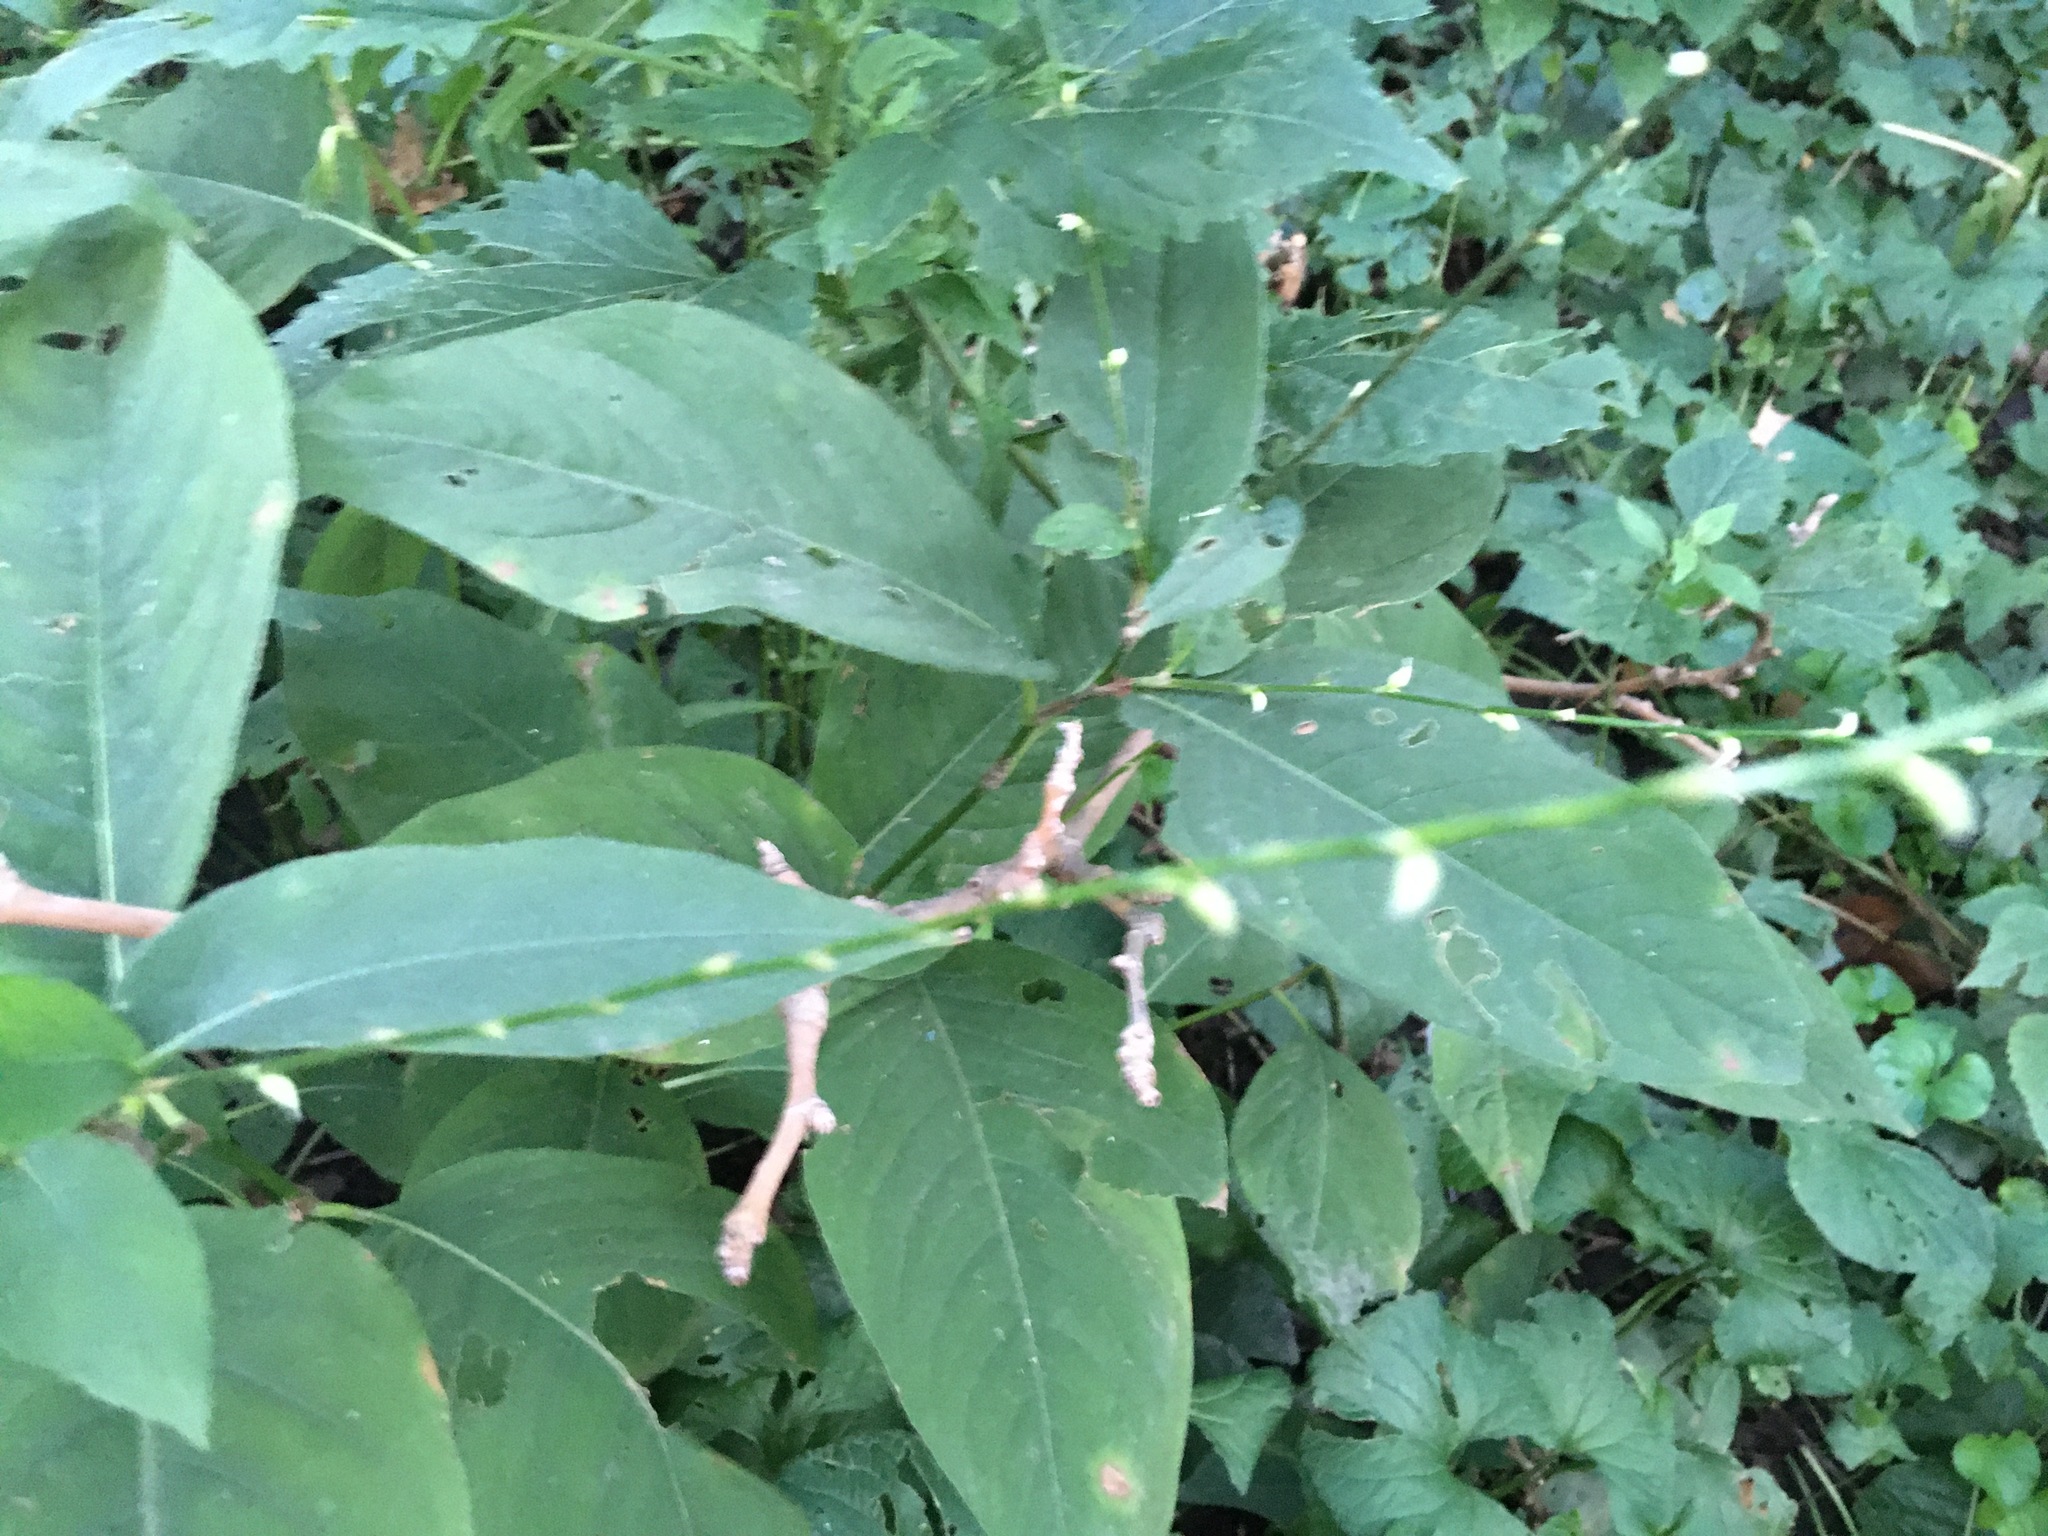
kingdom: Plantae
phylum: Tracheophyta
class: Magnoliopsida
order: Caryophyllales
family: Polygonaceae
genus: Persicaria
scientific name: Persicaria virginiana
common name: Jumpseed
